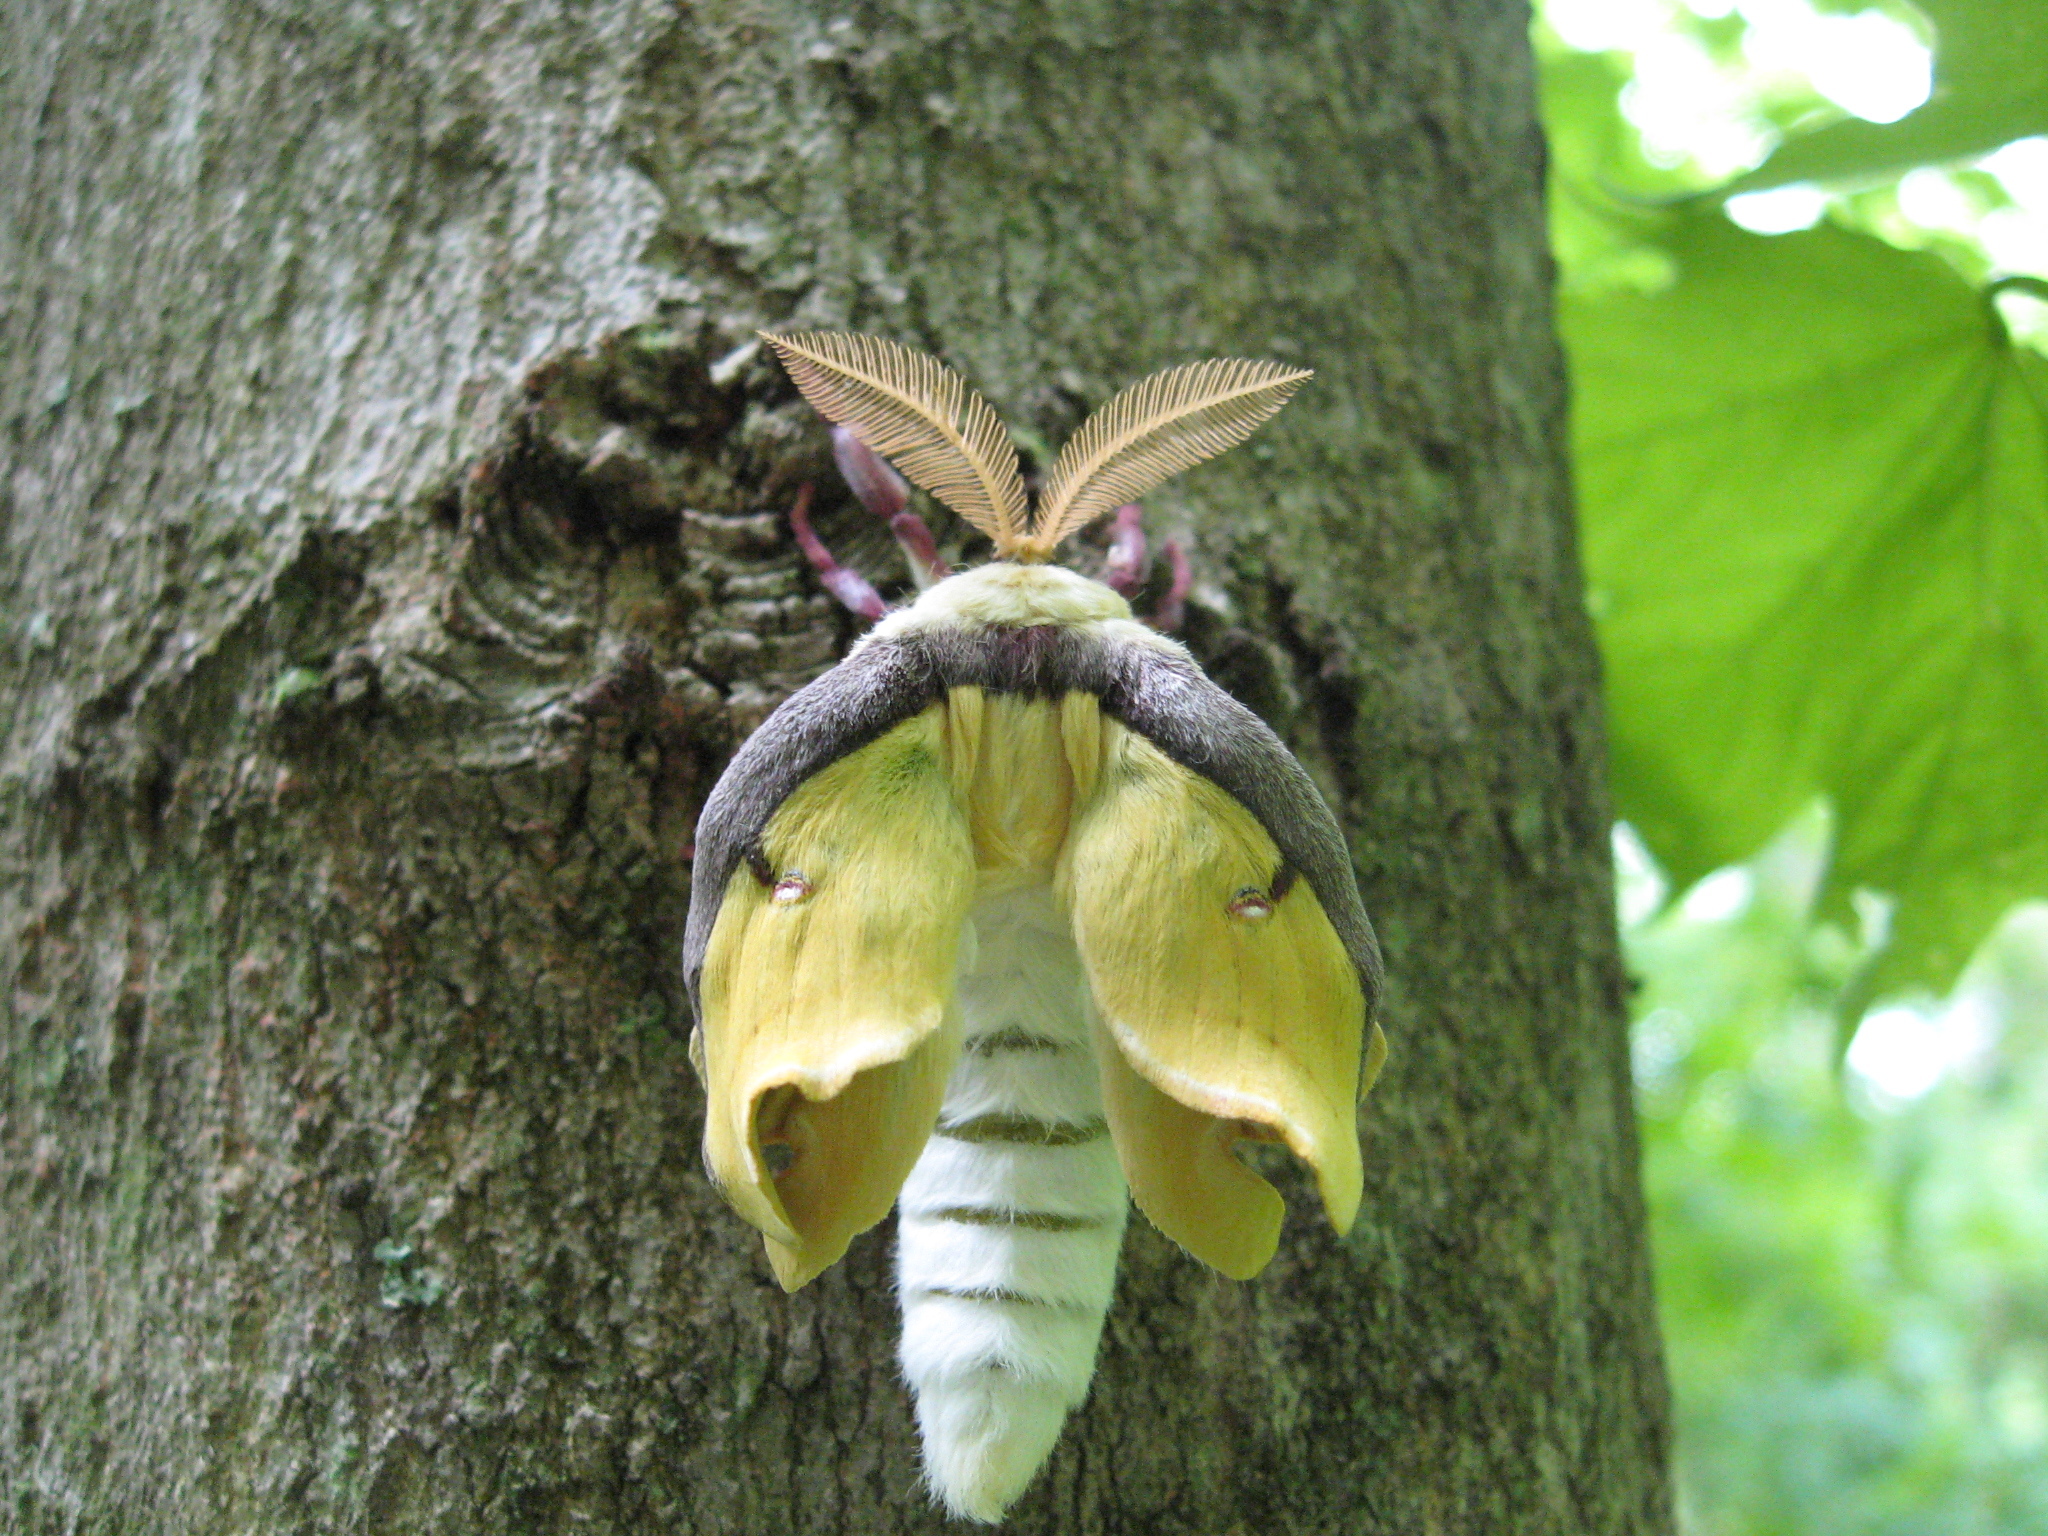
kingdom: Animalia
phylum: Arthropoda
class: Insecta
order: Lepidoptera
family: Saturniidae
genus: Actias
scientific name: Actias luna
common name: Luna moth
